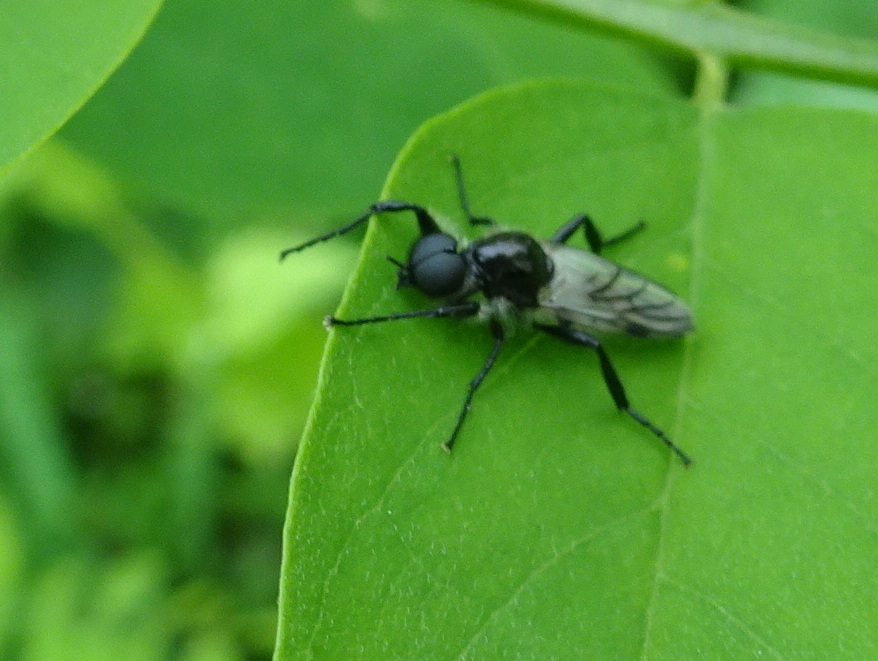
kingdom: Animalia
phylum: Arthropoda
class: Insecta
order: Diptera
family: Bibionidae
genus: Bibio
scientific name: Bibio albipennis
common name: White-winged march fly
